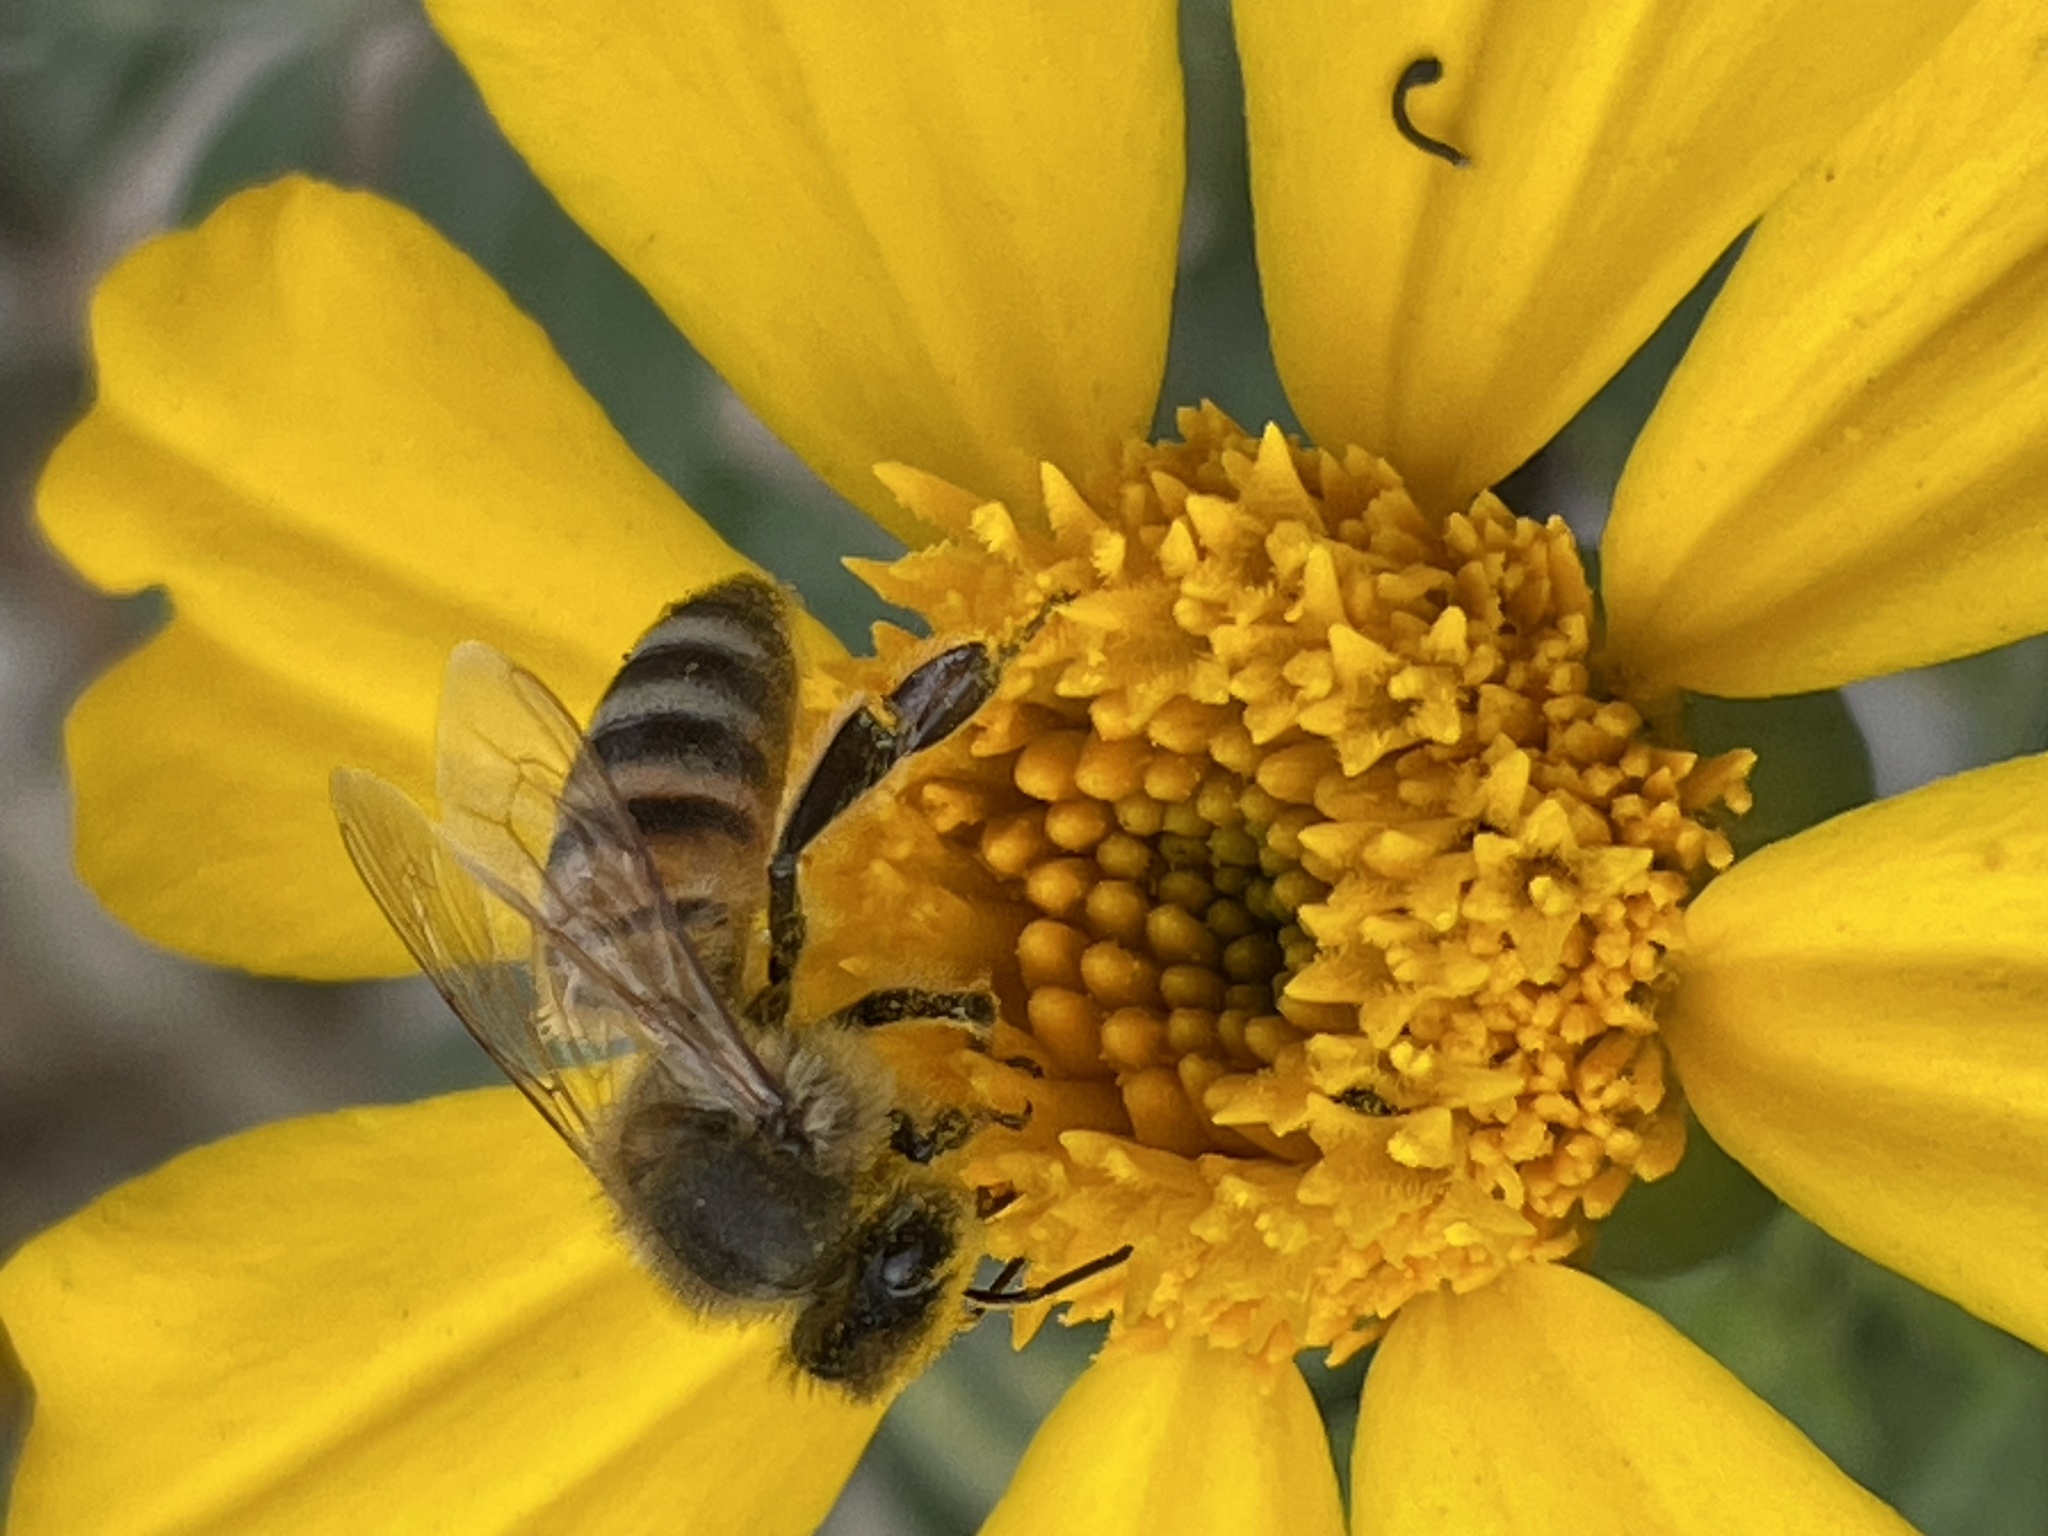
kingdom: Animalia
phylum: Arthropoda
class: Insecta
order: Hymenoptera
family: Apidae
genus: Apis
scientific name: Apis mellifera
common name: Honey bee
